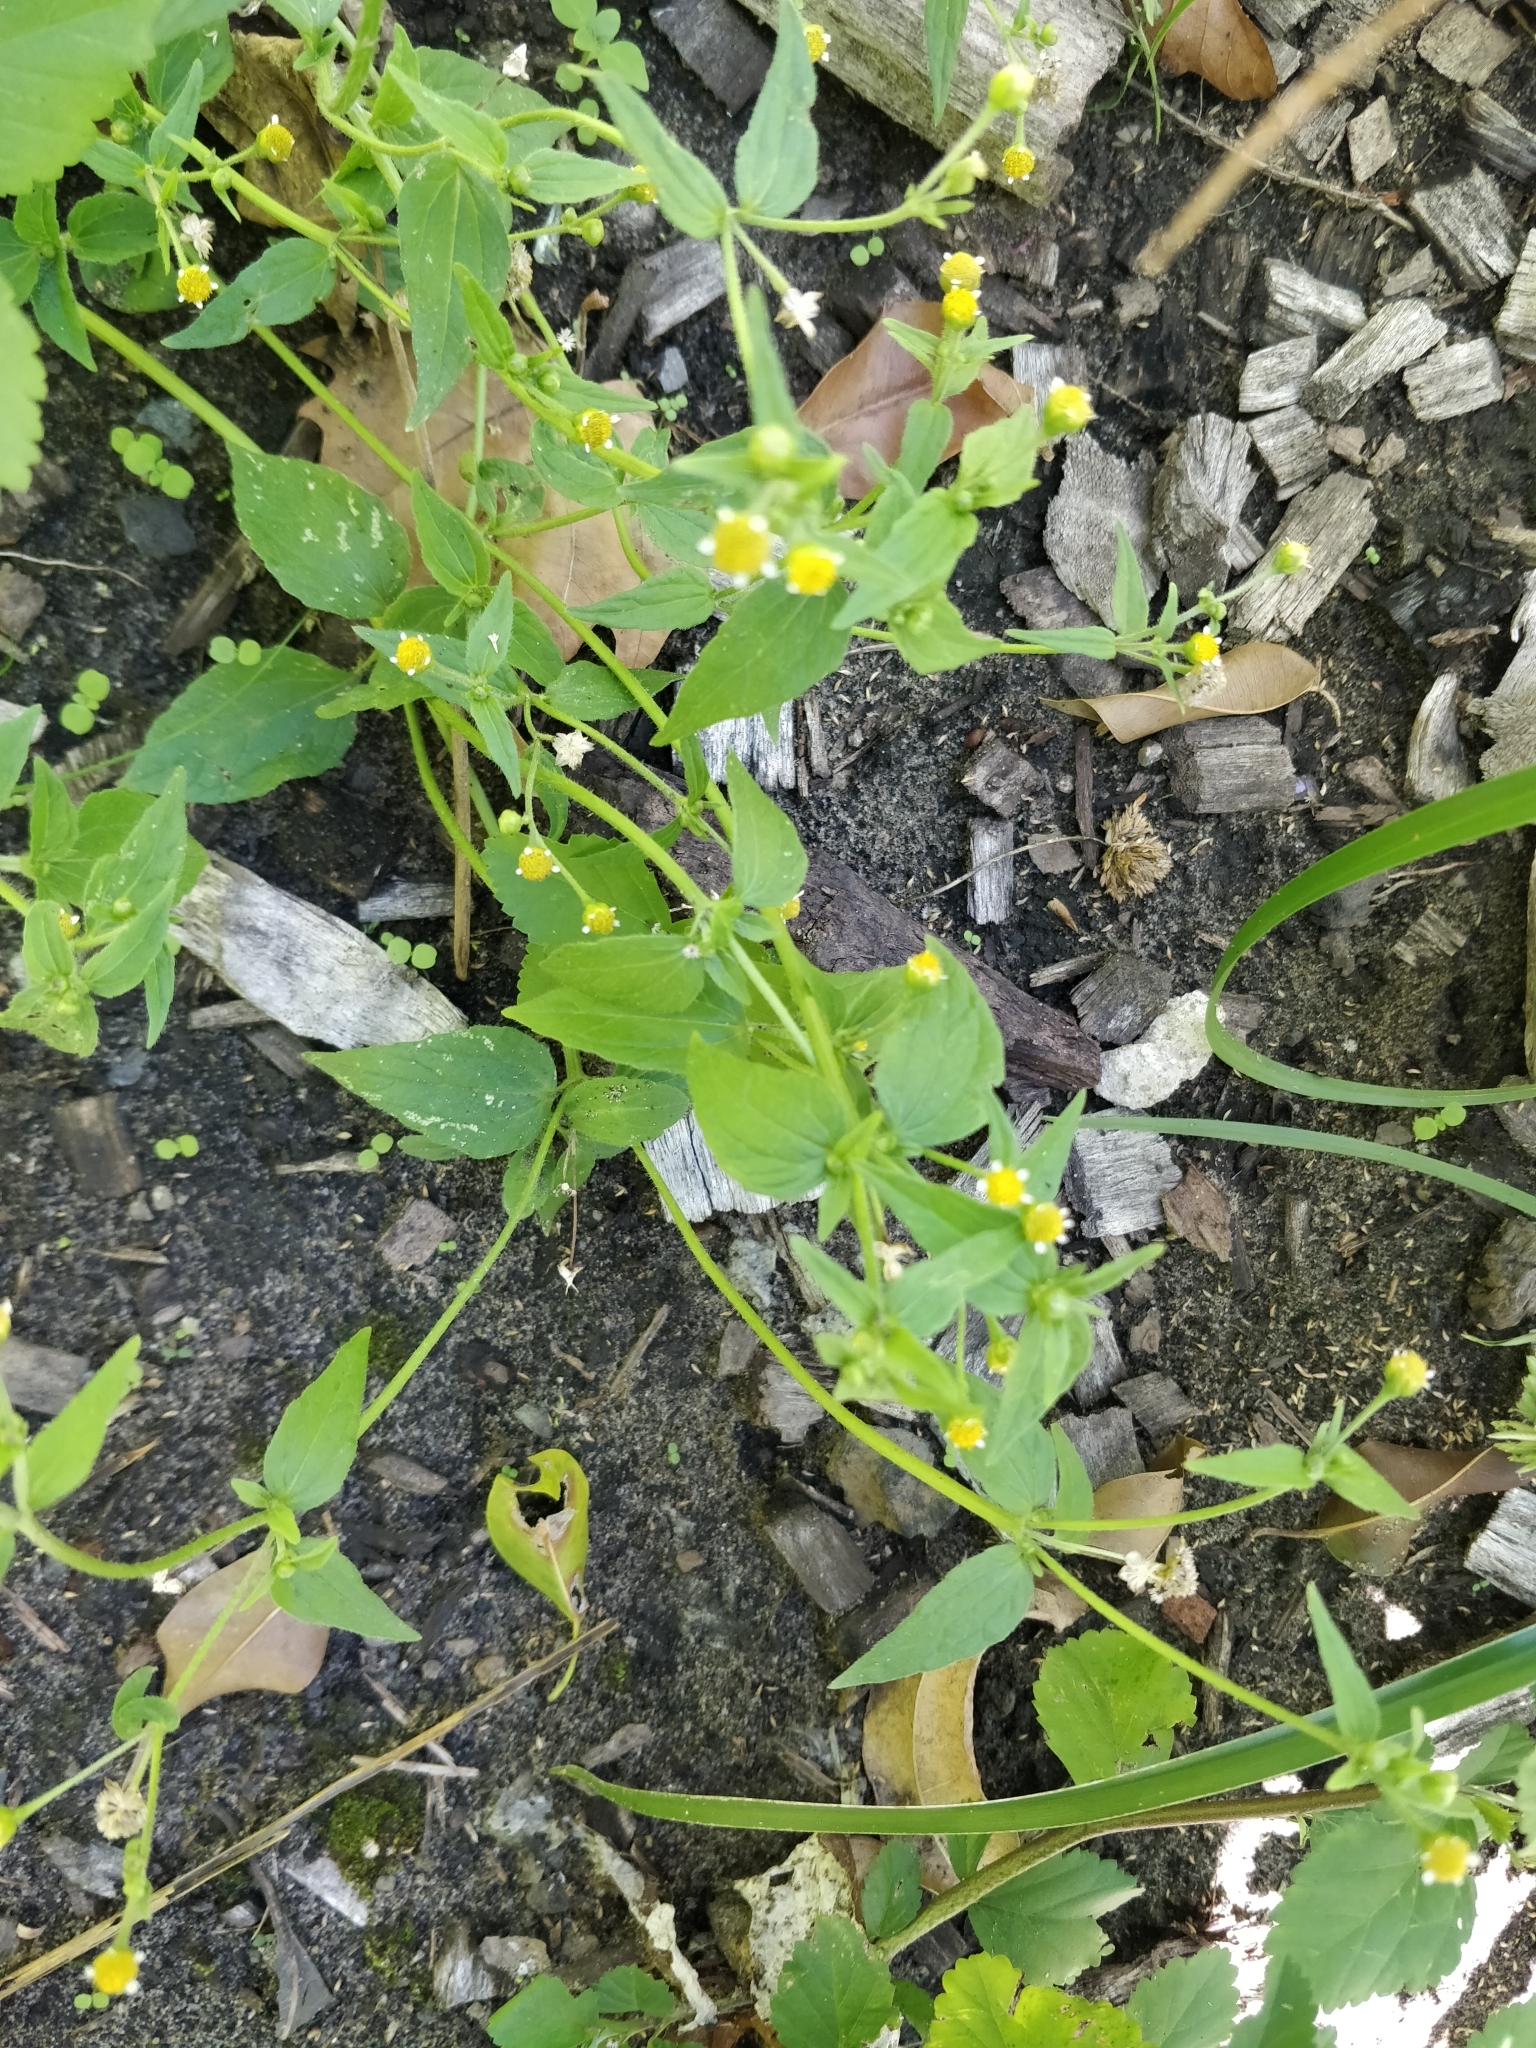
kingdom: Plantae
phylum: Tracheophyta
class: Magnoliopsida
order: Asterales
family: Asteraceae
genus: Galinsoga
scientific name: Galinsoga parviflora
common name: Gallant soldier
